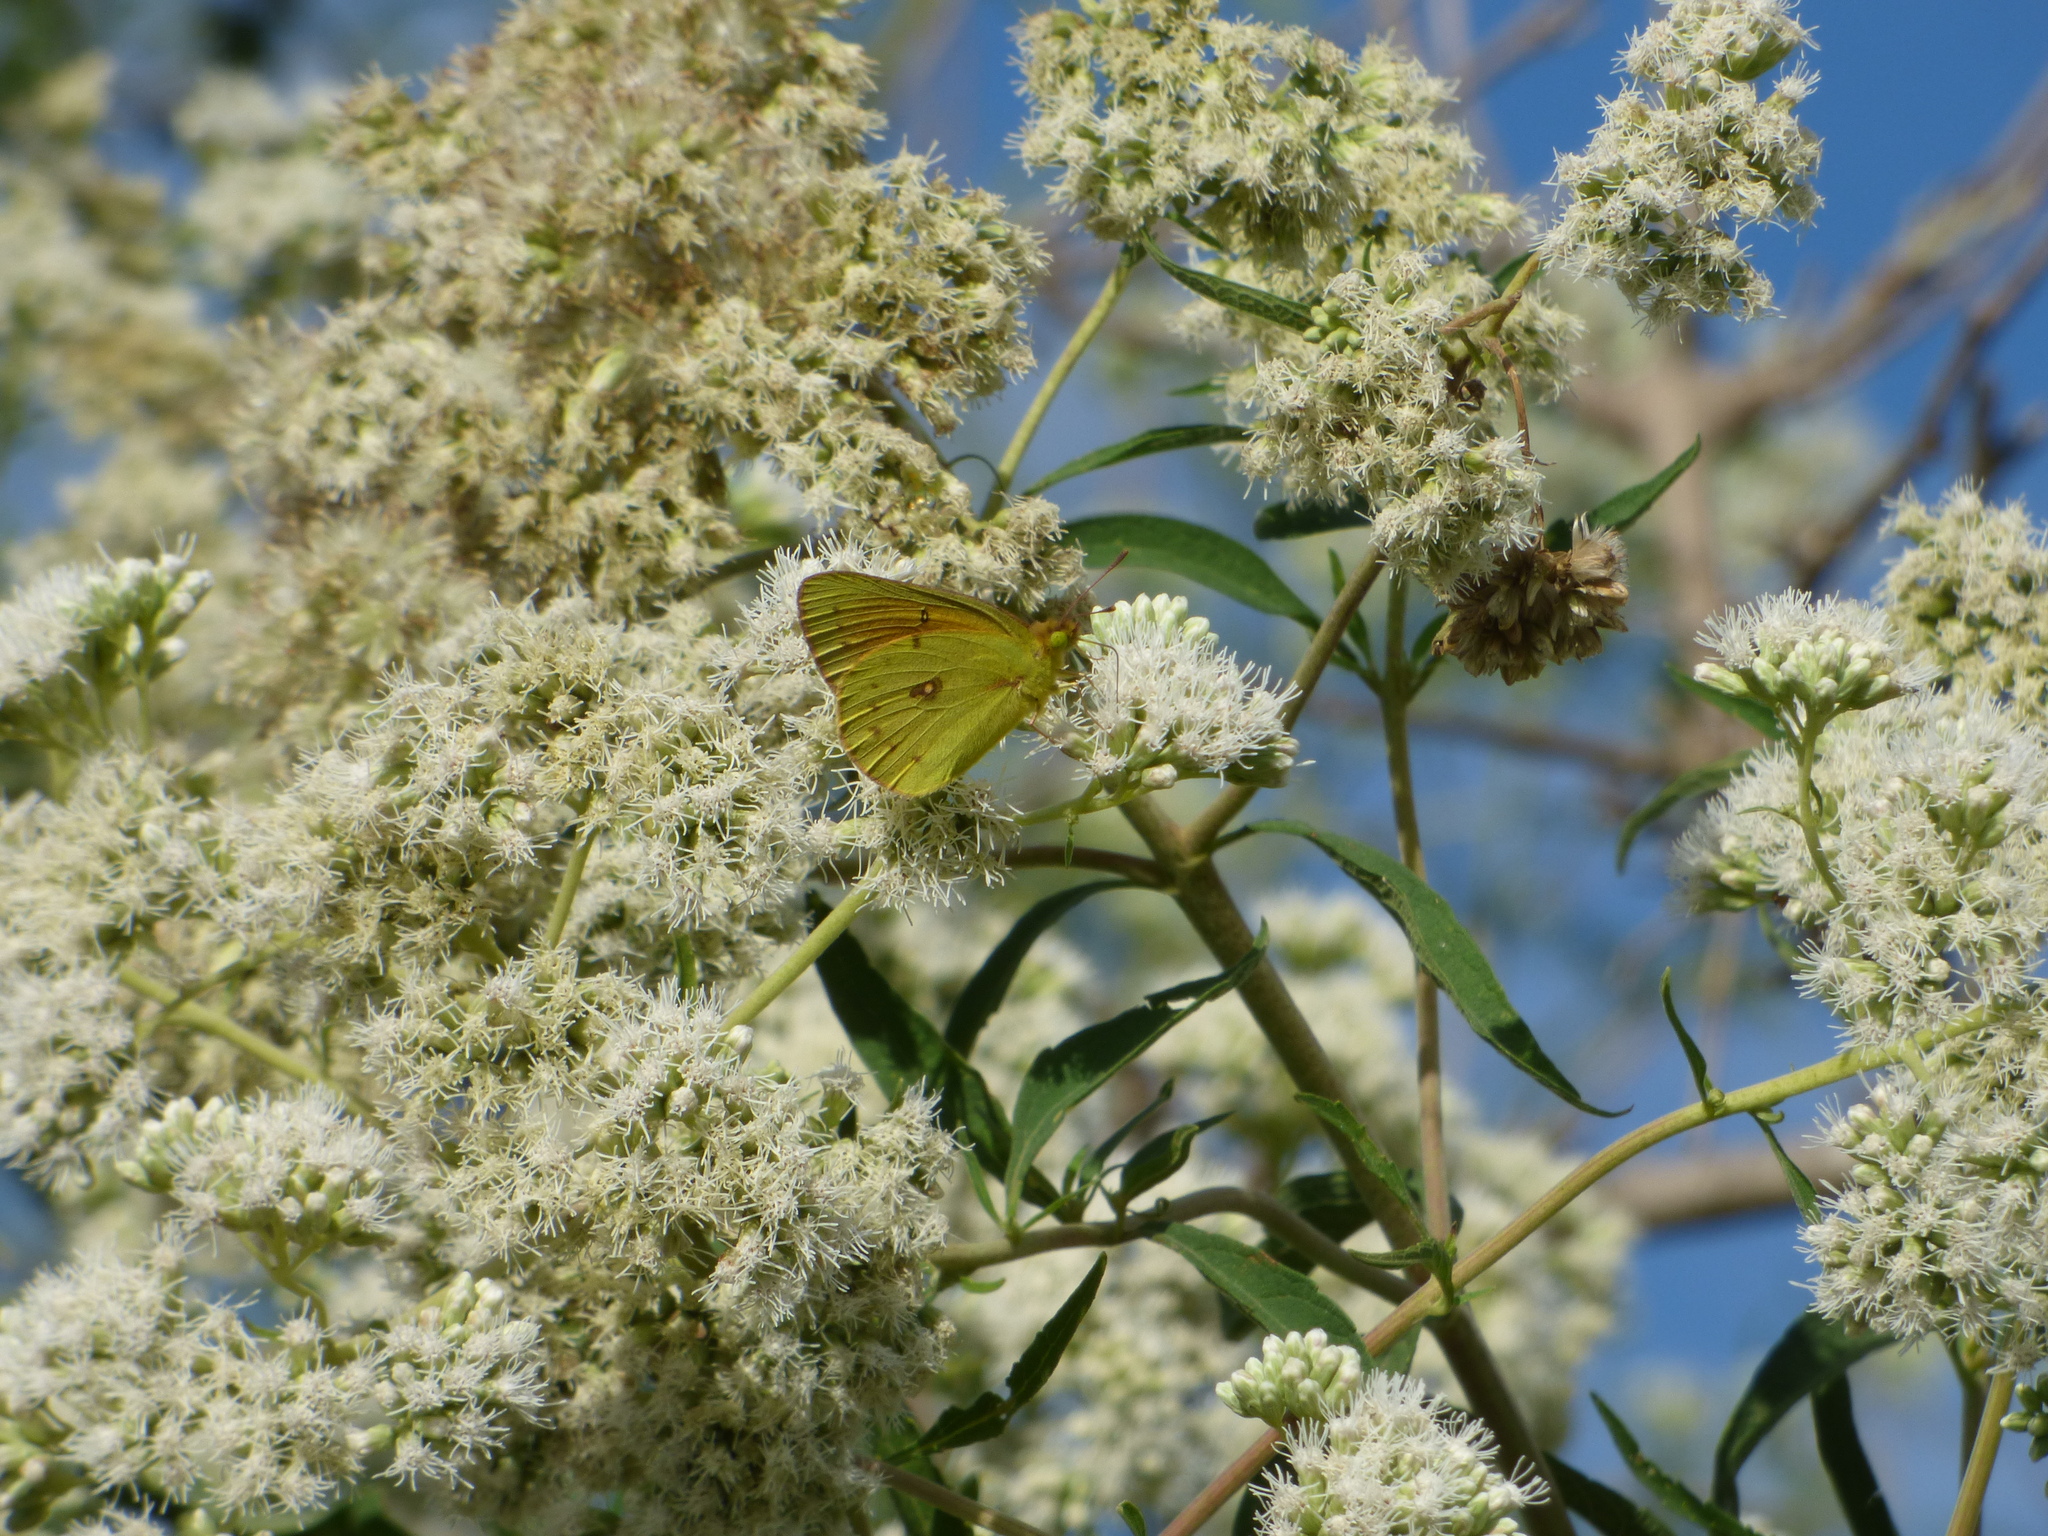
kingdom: Animalia
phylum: Arthropoda
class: Insecta
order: Lepidoptera
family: Pieridae
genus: Colias
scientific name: Colias lesbia
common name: Lesbia clouded yellow
